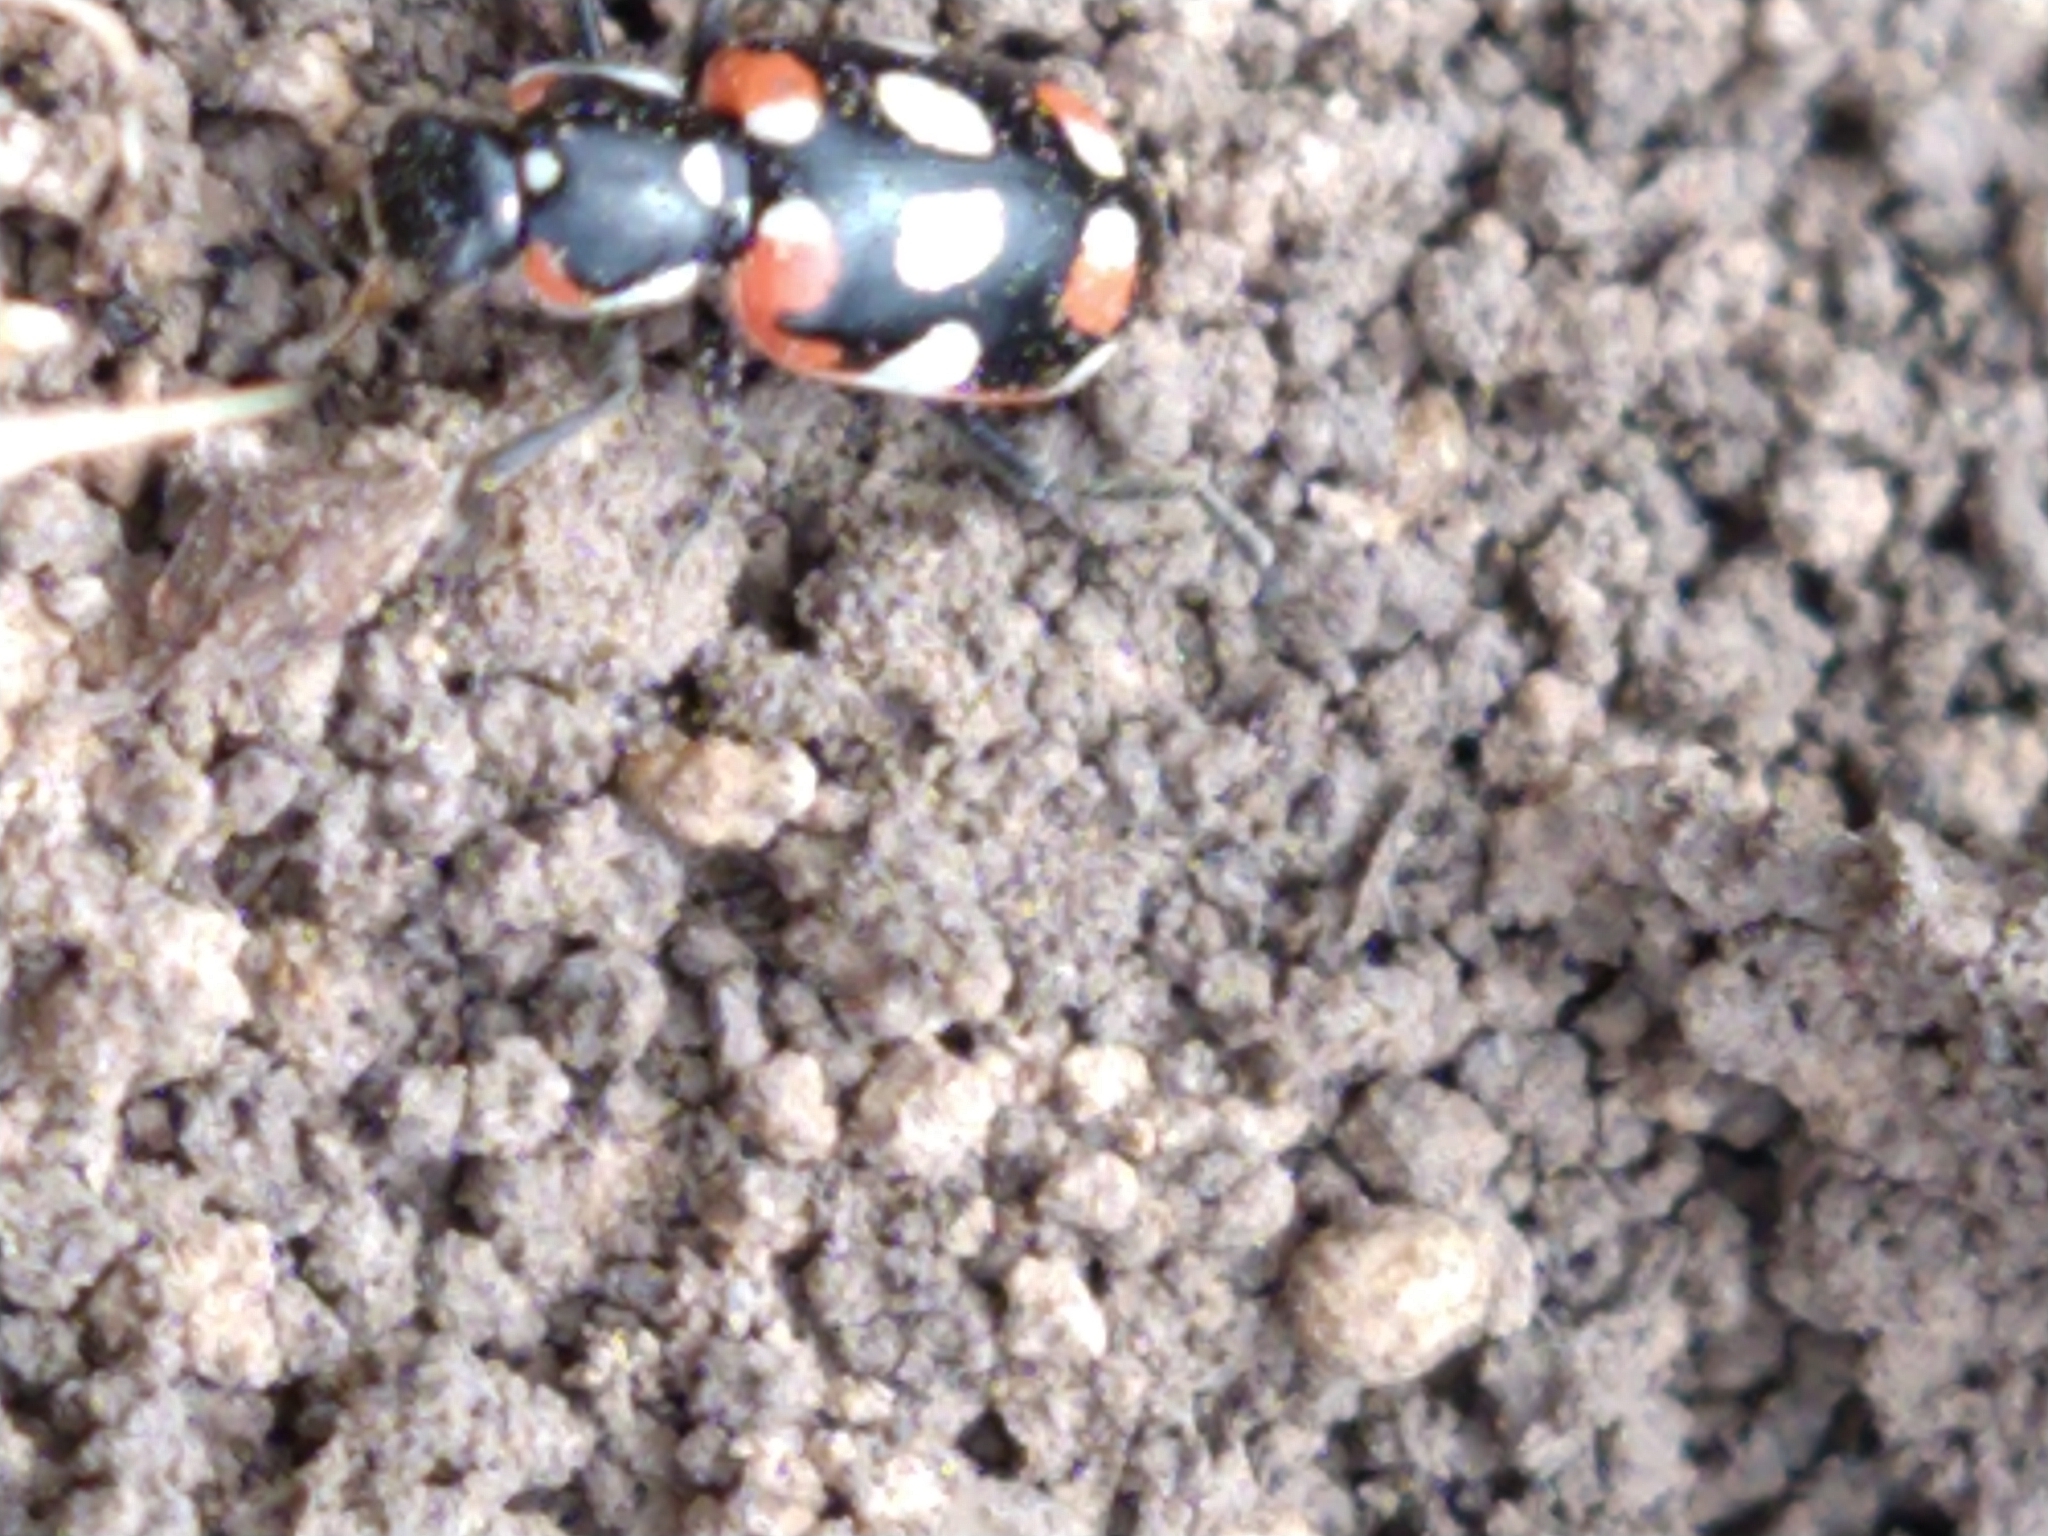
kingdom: Animalia
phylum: Arthropoda
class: Insecta
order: Coleoptera
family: Coccinellidae
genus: Eriopis
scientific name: Eriopis connexa
